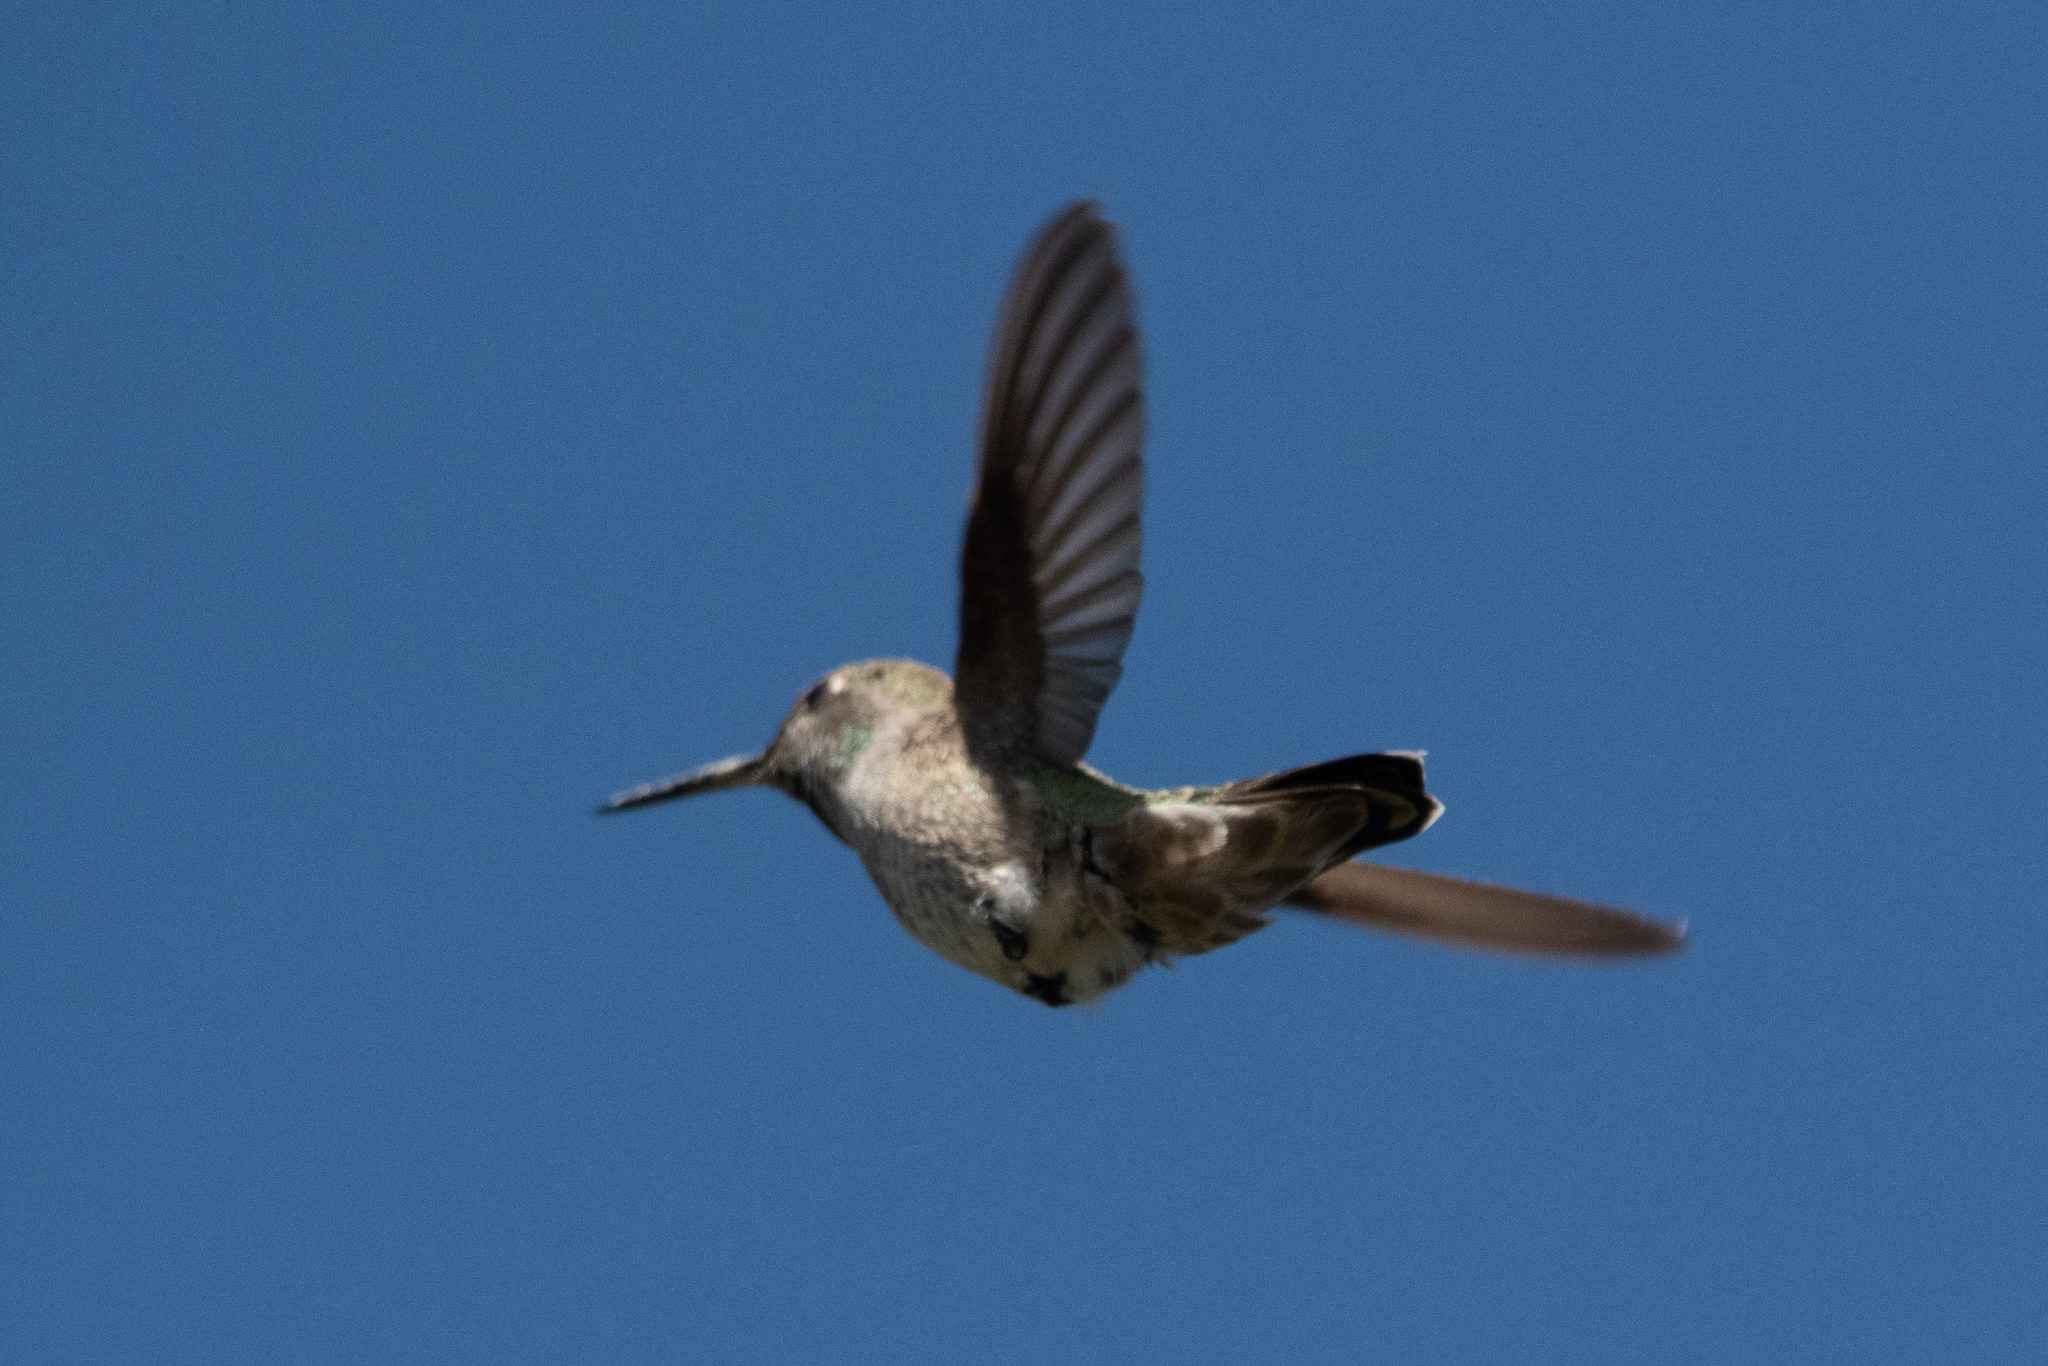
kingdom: Animalia
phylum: Chordata
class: Aves
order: Apodiformes
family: Trochilidae
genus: Calypte
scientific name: Calypte anna
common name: Anna's hummingbird
